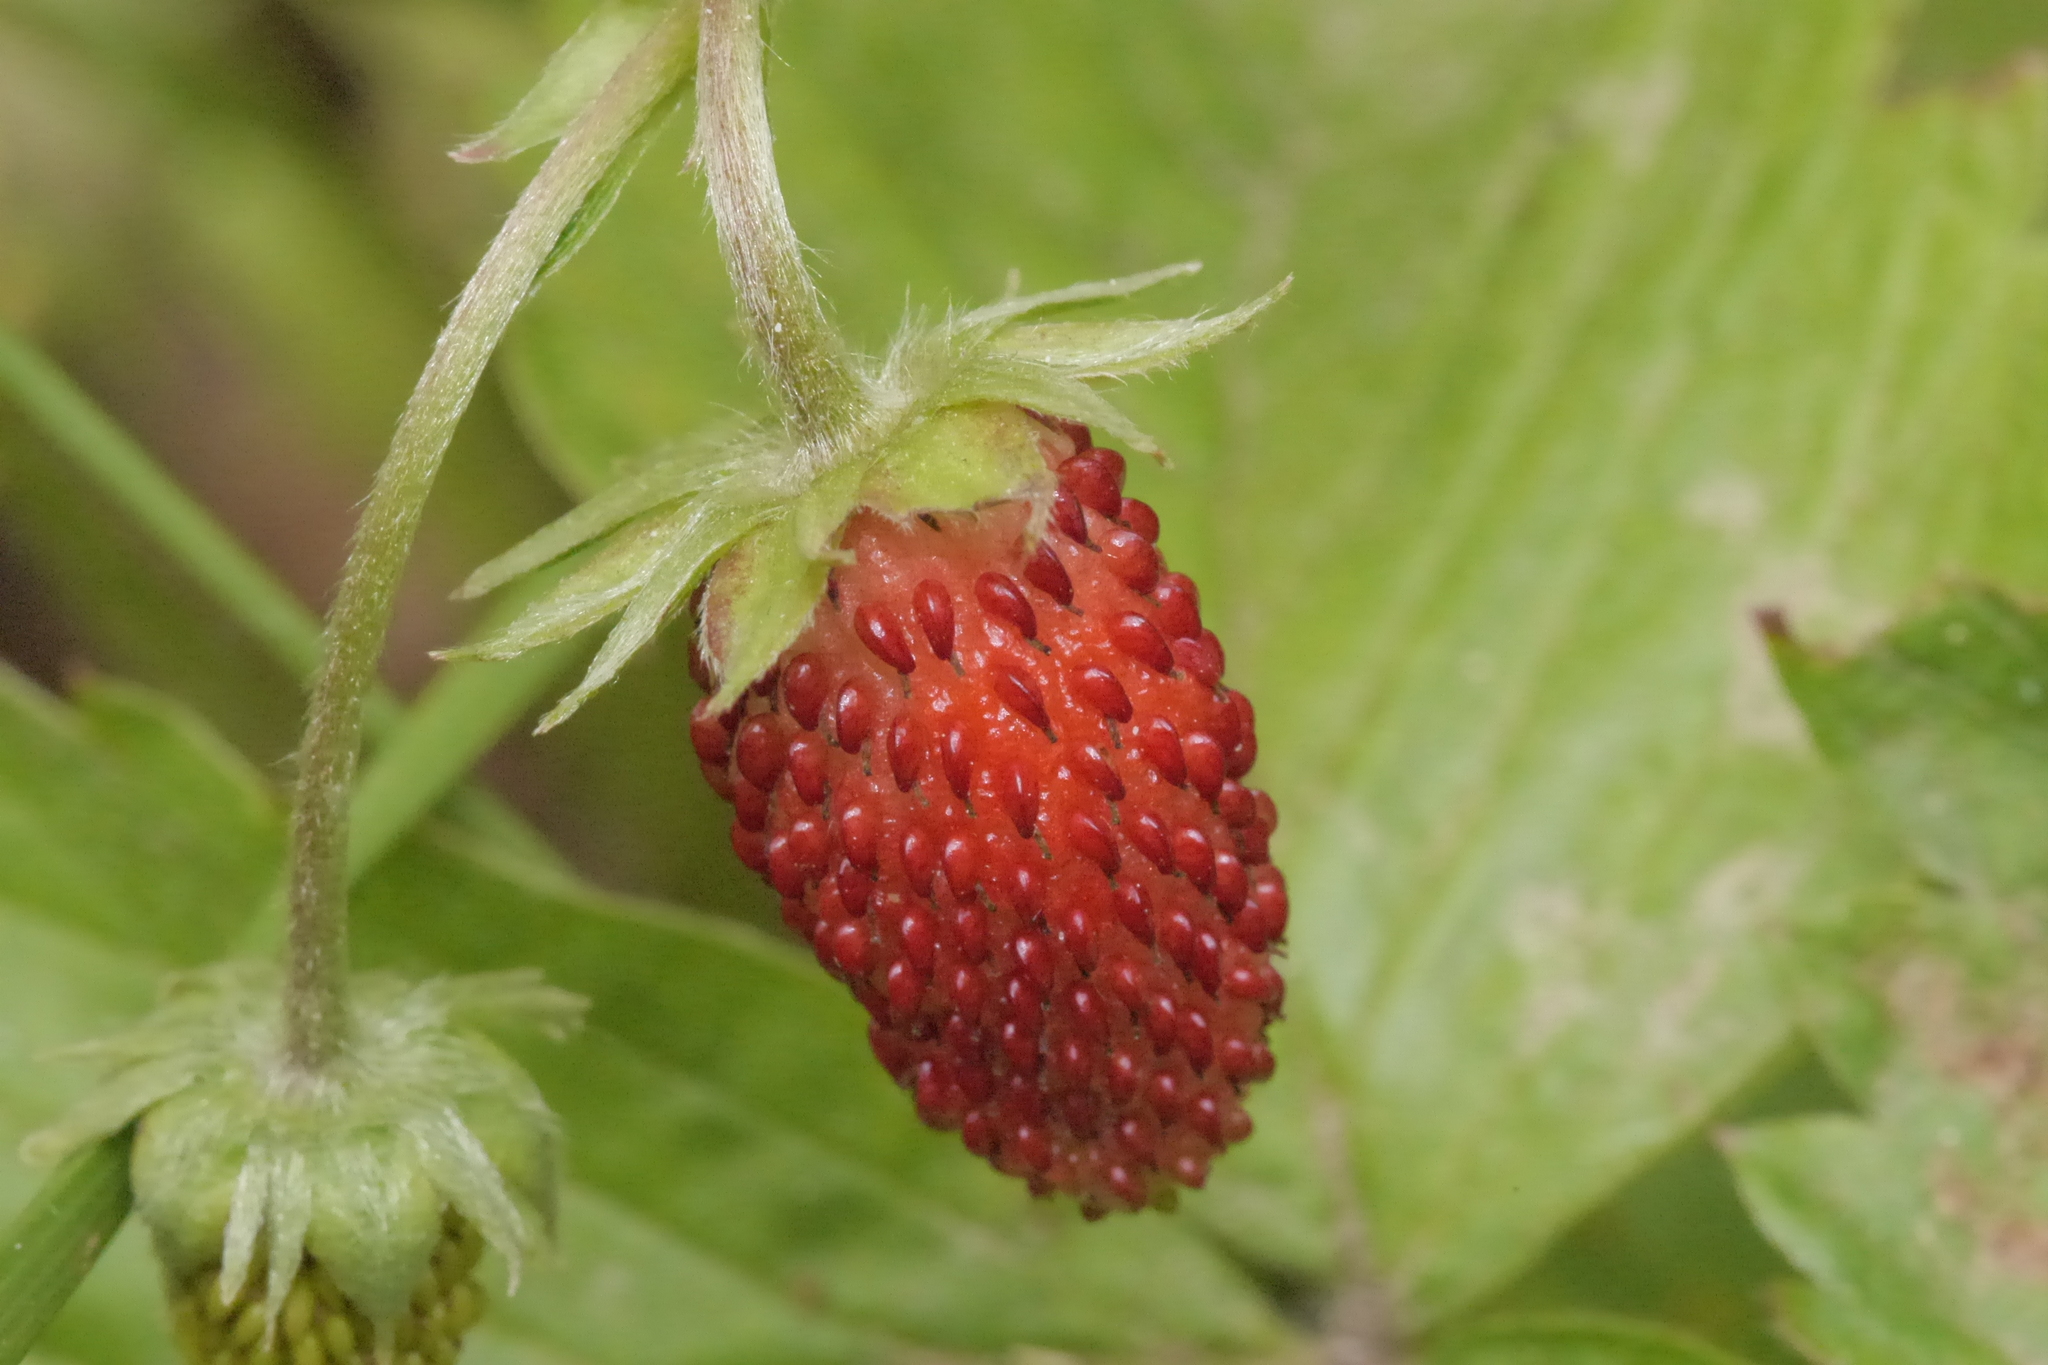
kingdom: Plantae
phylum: Tracheophyta
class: Magnoliopsida
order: Rosales
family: Rosaceae
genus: Fragaria
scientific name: Fragaria vesca
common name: Wild strawberry
